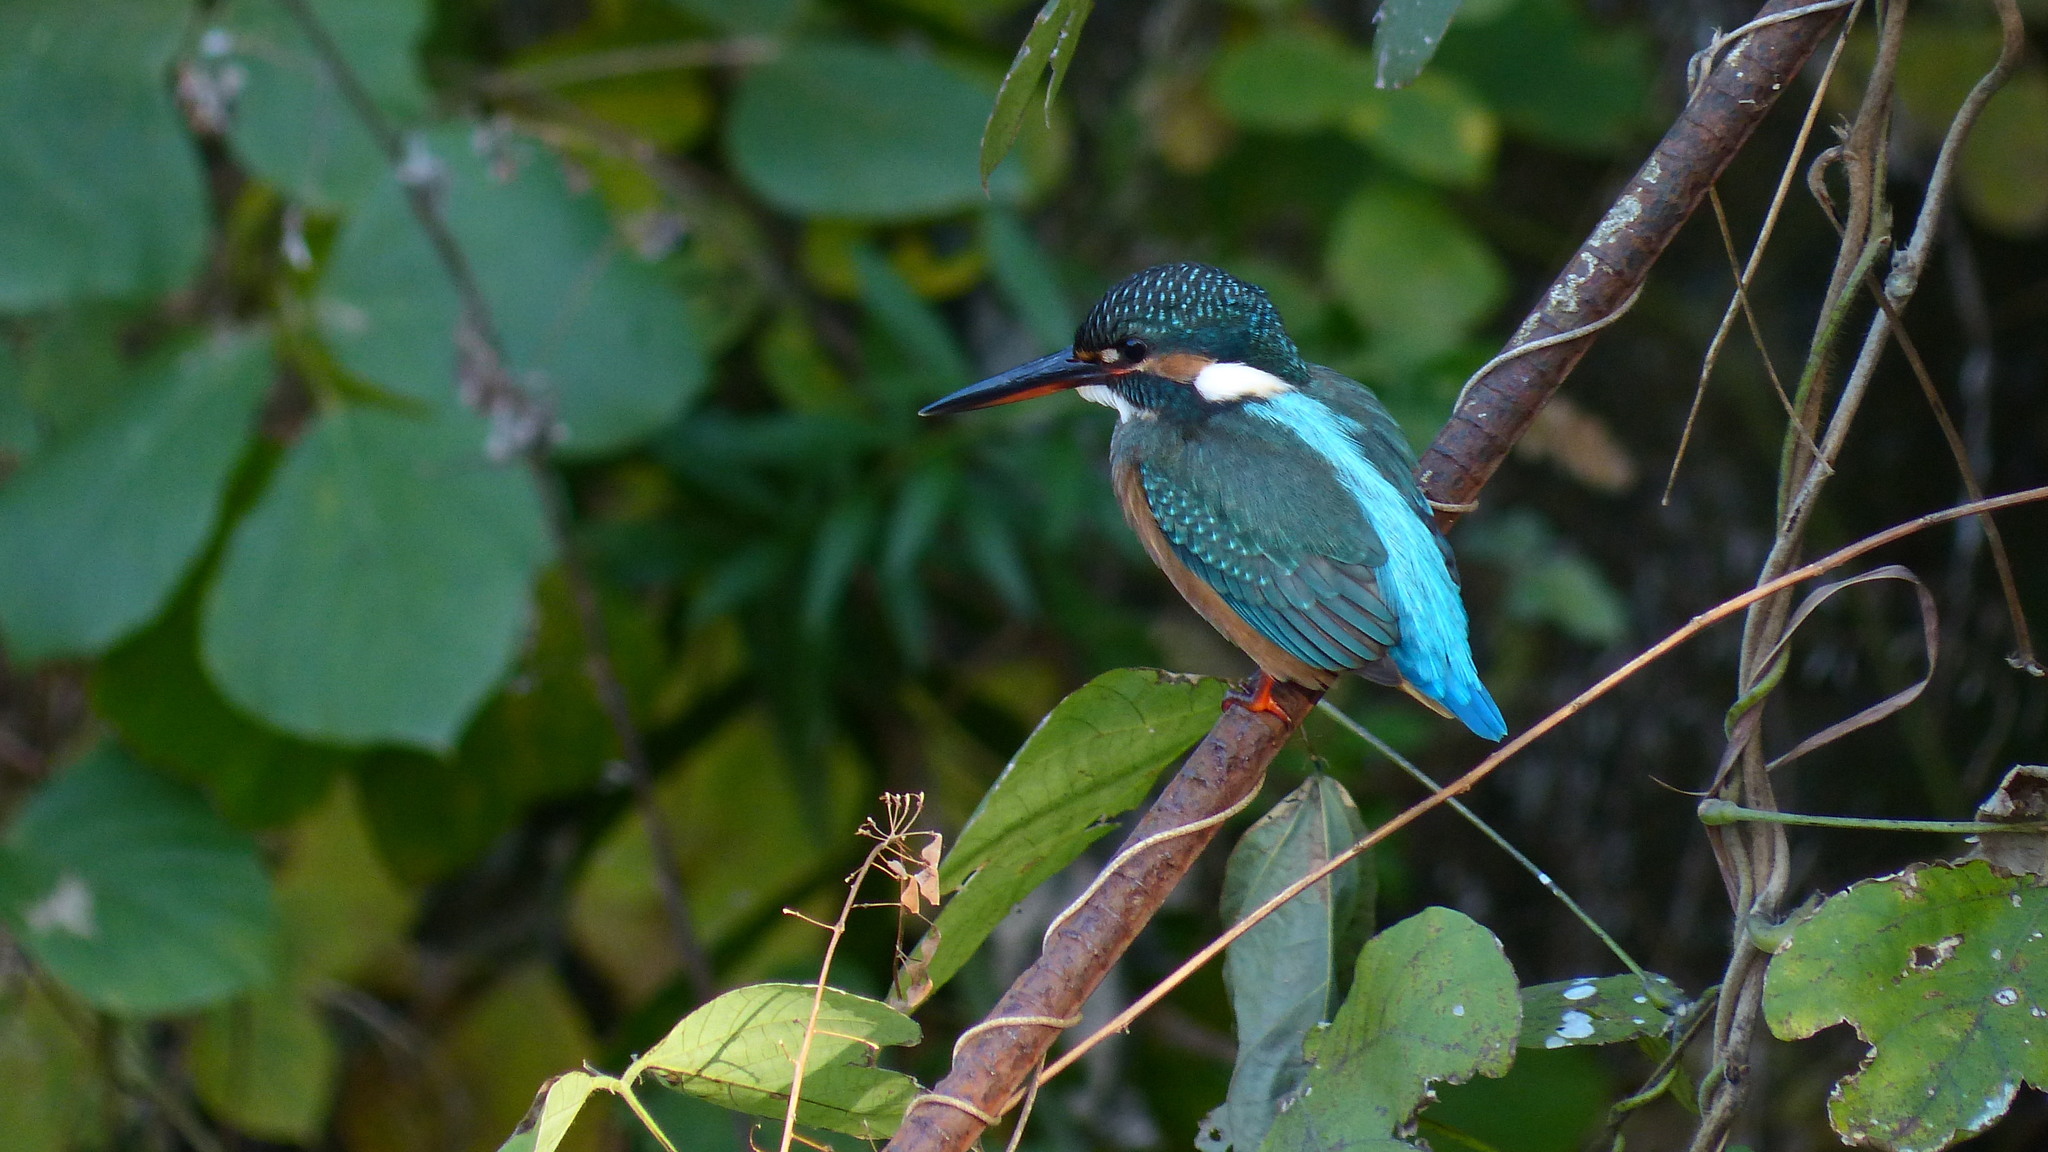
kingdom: Animalia
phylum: Chordata
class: Aves
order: Coraciiformes
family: Alcedinidae
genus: Alcedo
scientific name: Alcedo atthis
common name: Common kingfisher
